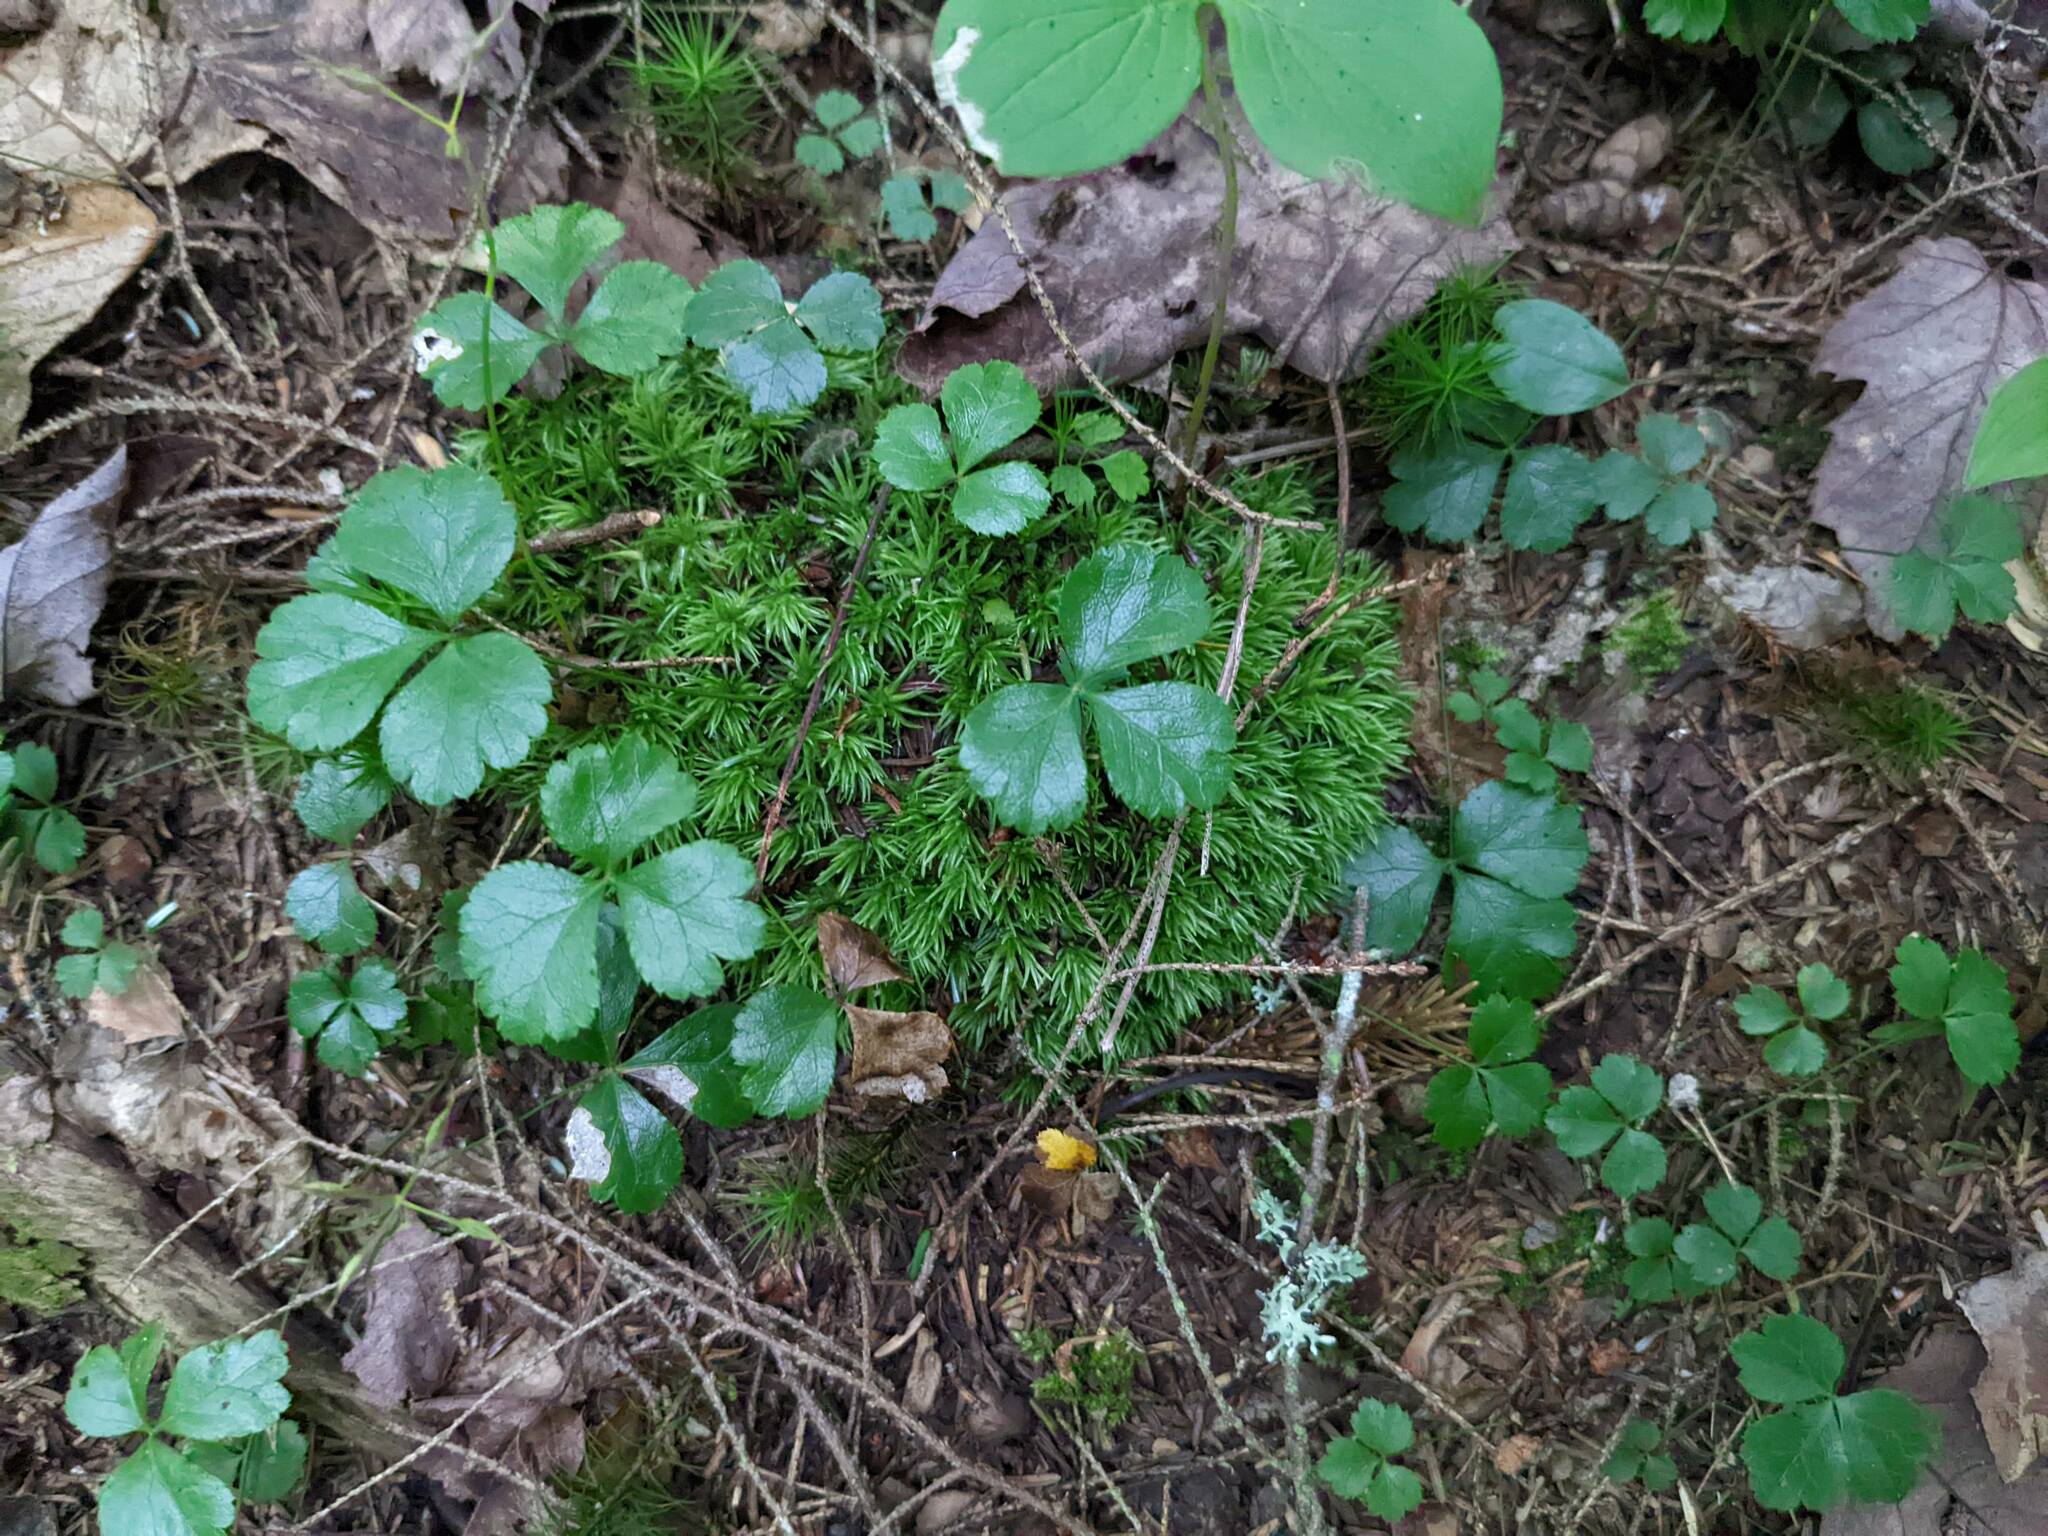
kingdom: Plantae
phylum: Tracheophyta
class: Magnoliopsida
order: Ranunculales
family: Ranunculaceae
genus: Coptis
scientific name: Coptis trifolia
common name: Canker-root
